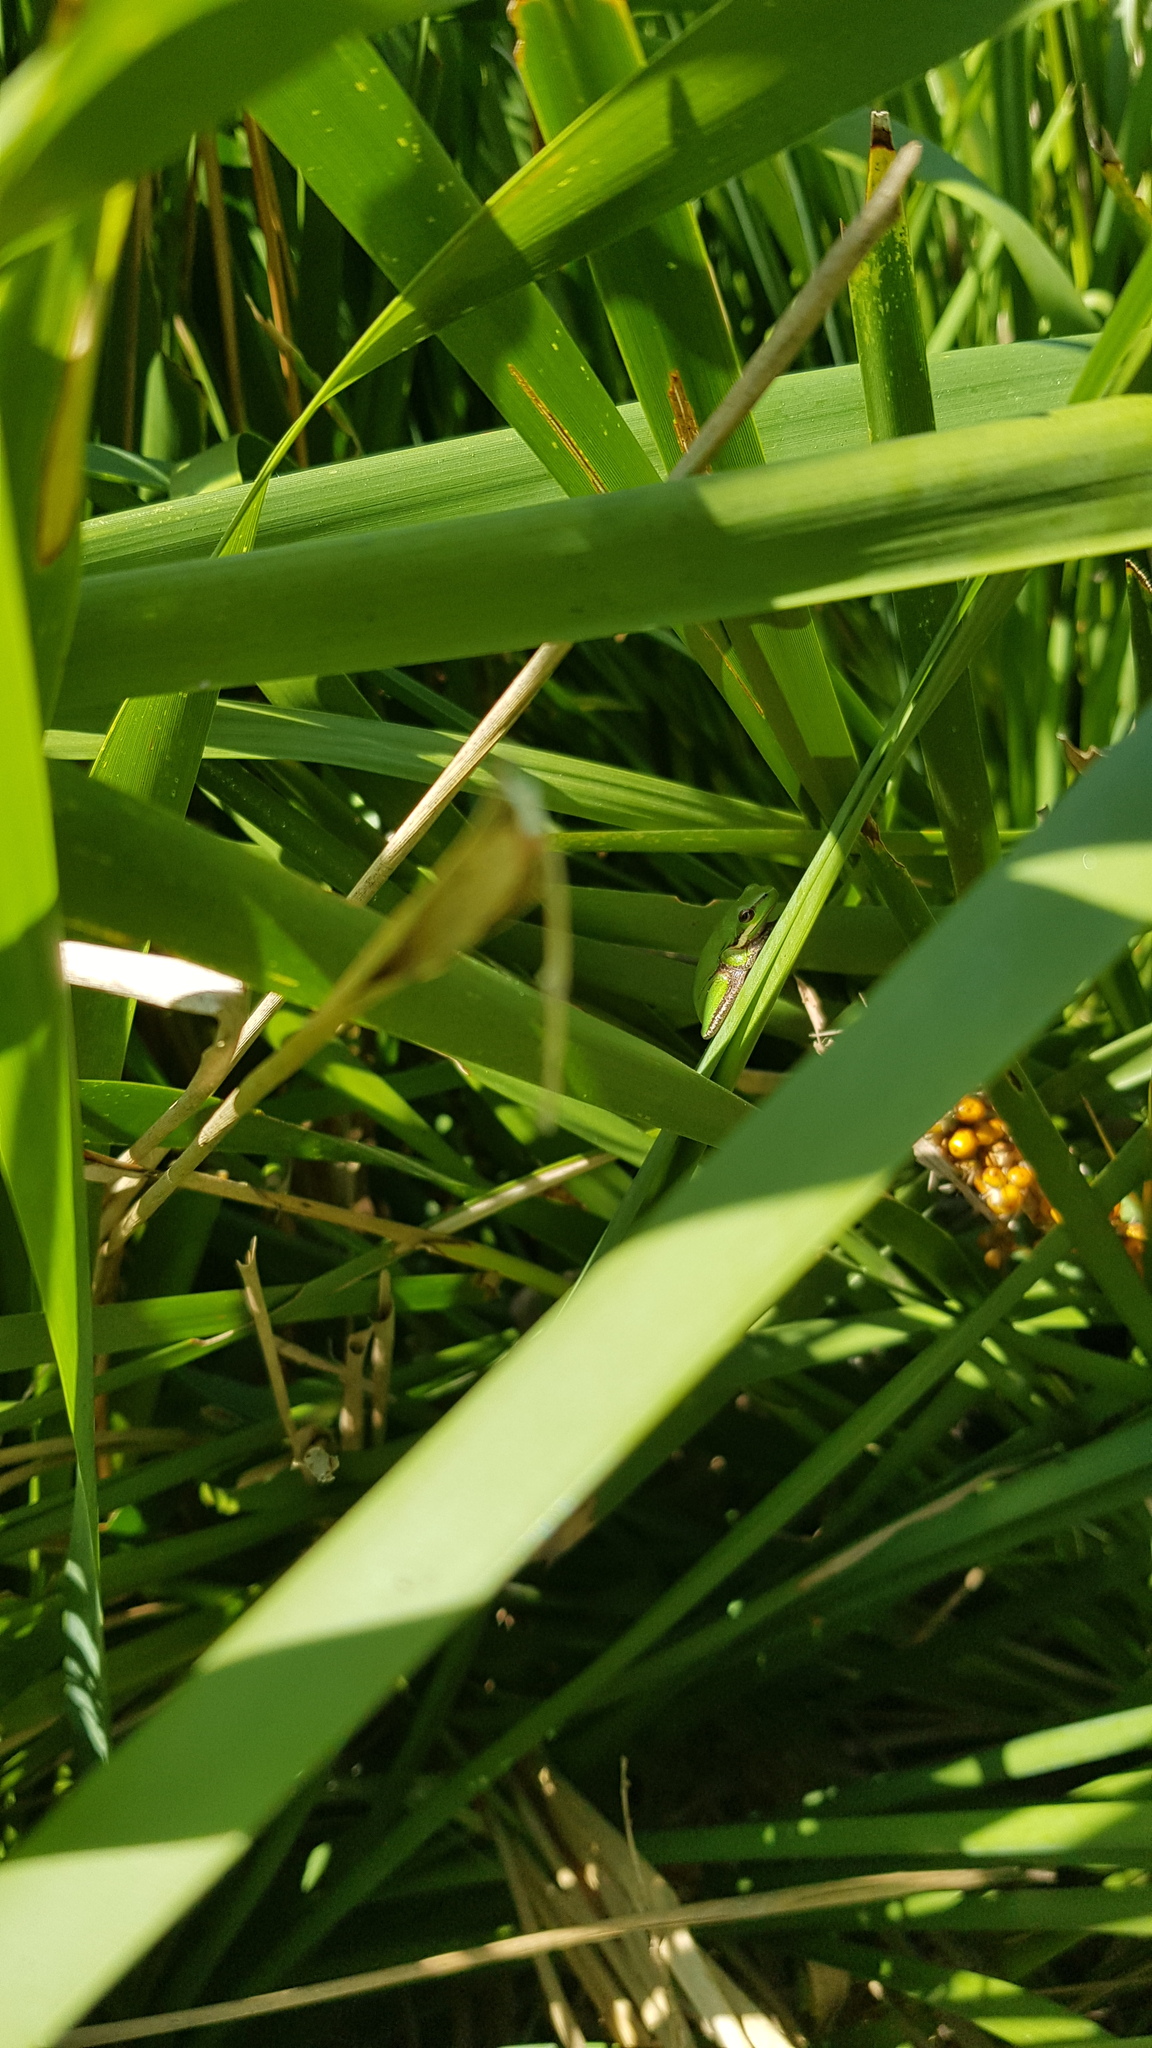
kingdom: Animalia
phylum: Chordata
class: Amphibia
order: Anura
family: Pelodryadidae
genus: Litoria
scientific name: Litoria fallax
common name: Eastern dwarf treefrog
